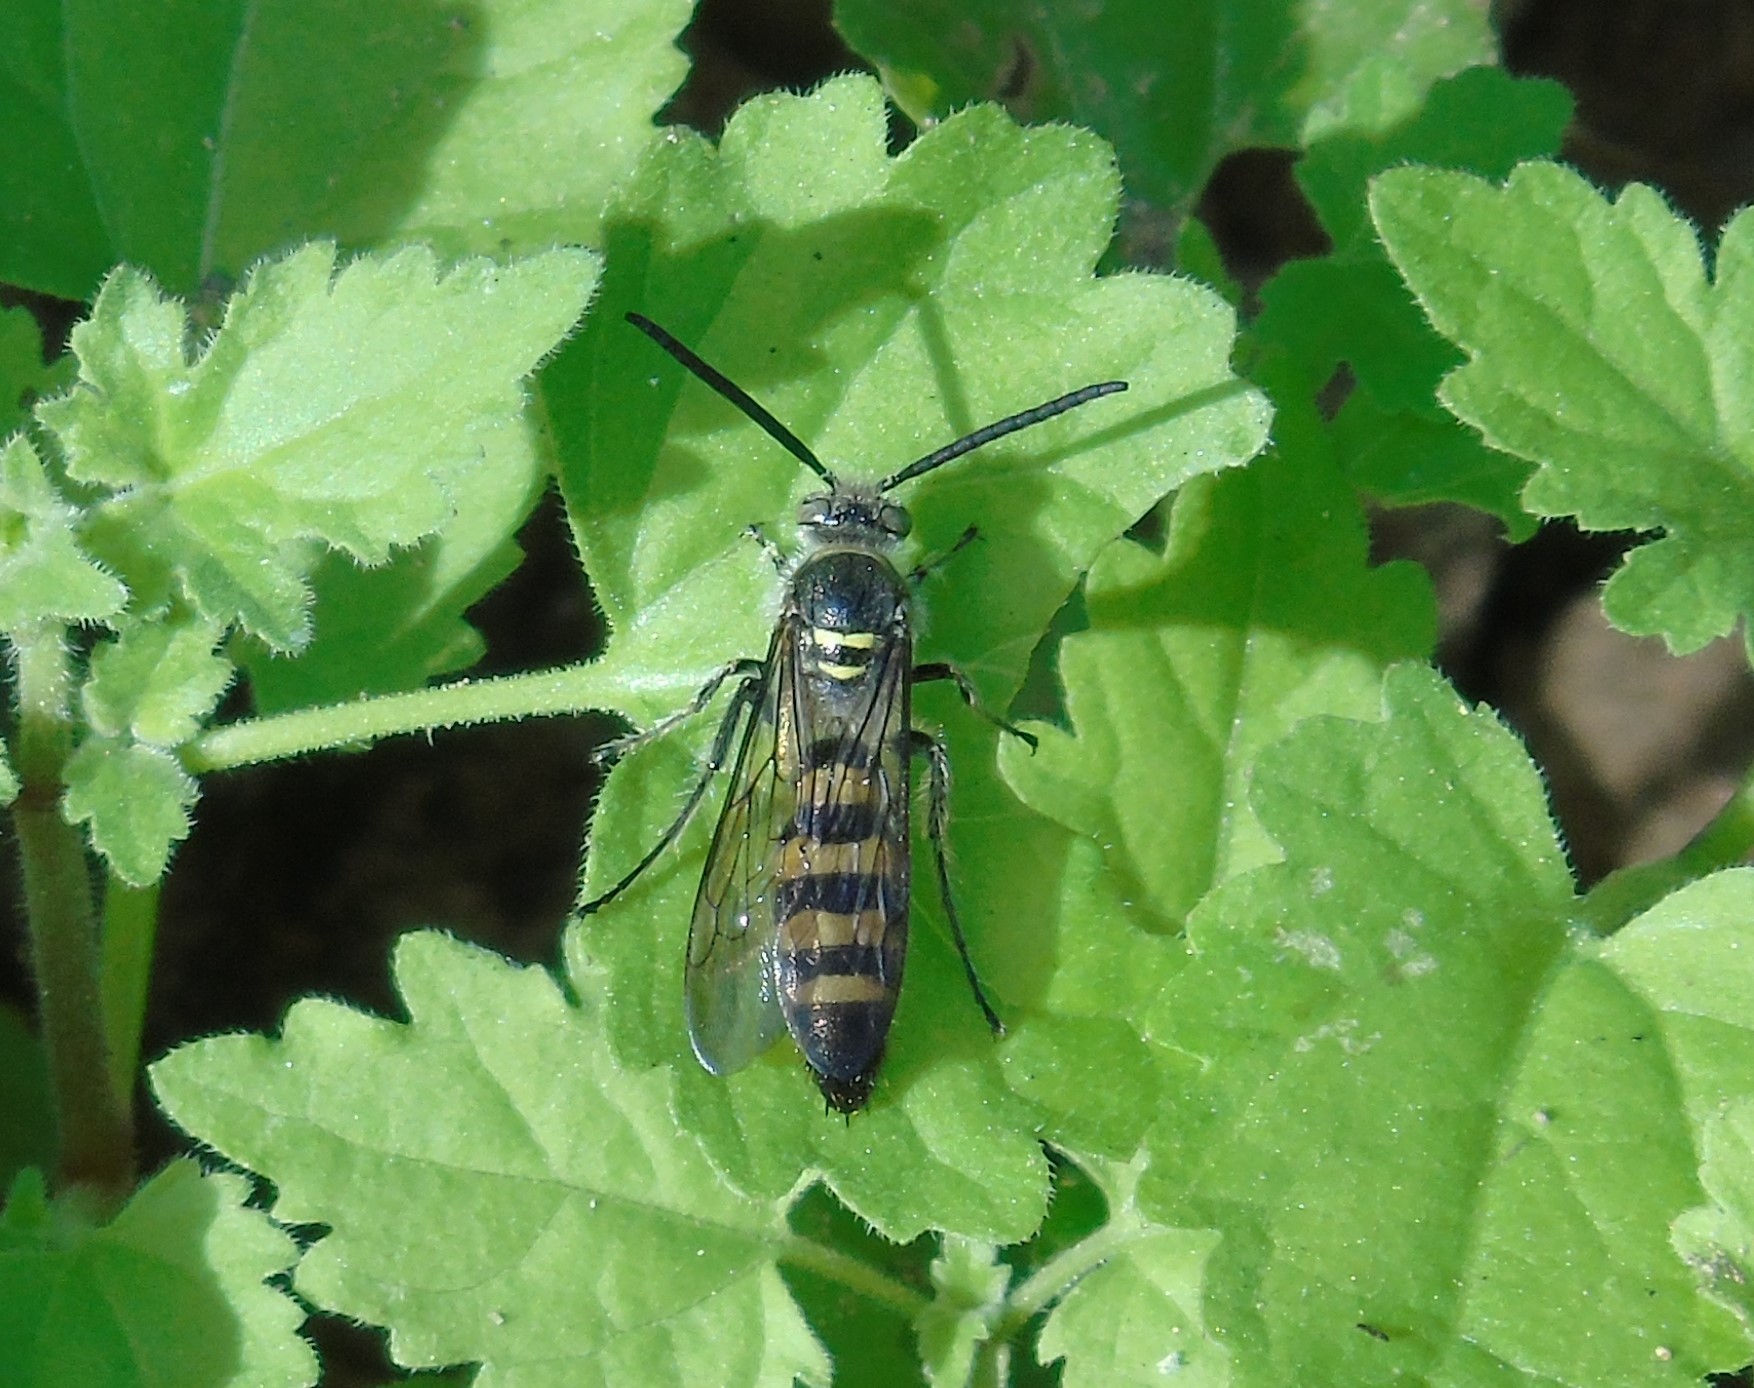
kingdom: Animalia
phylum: Arthropoda
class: Insecta
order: Hymenoptera
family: Scoliidae
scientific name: Scoliidae
